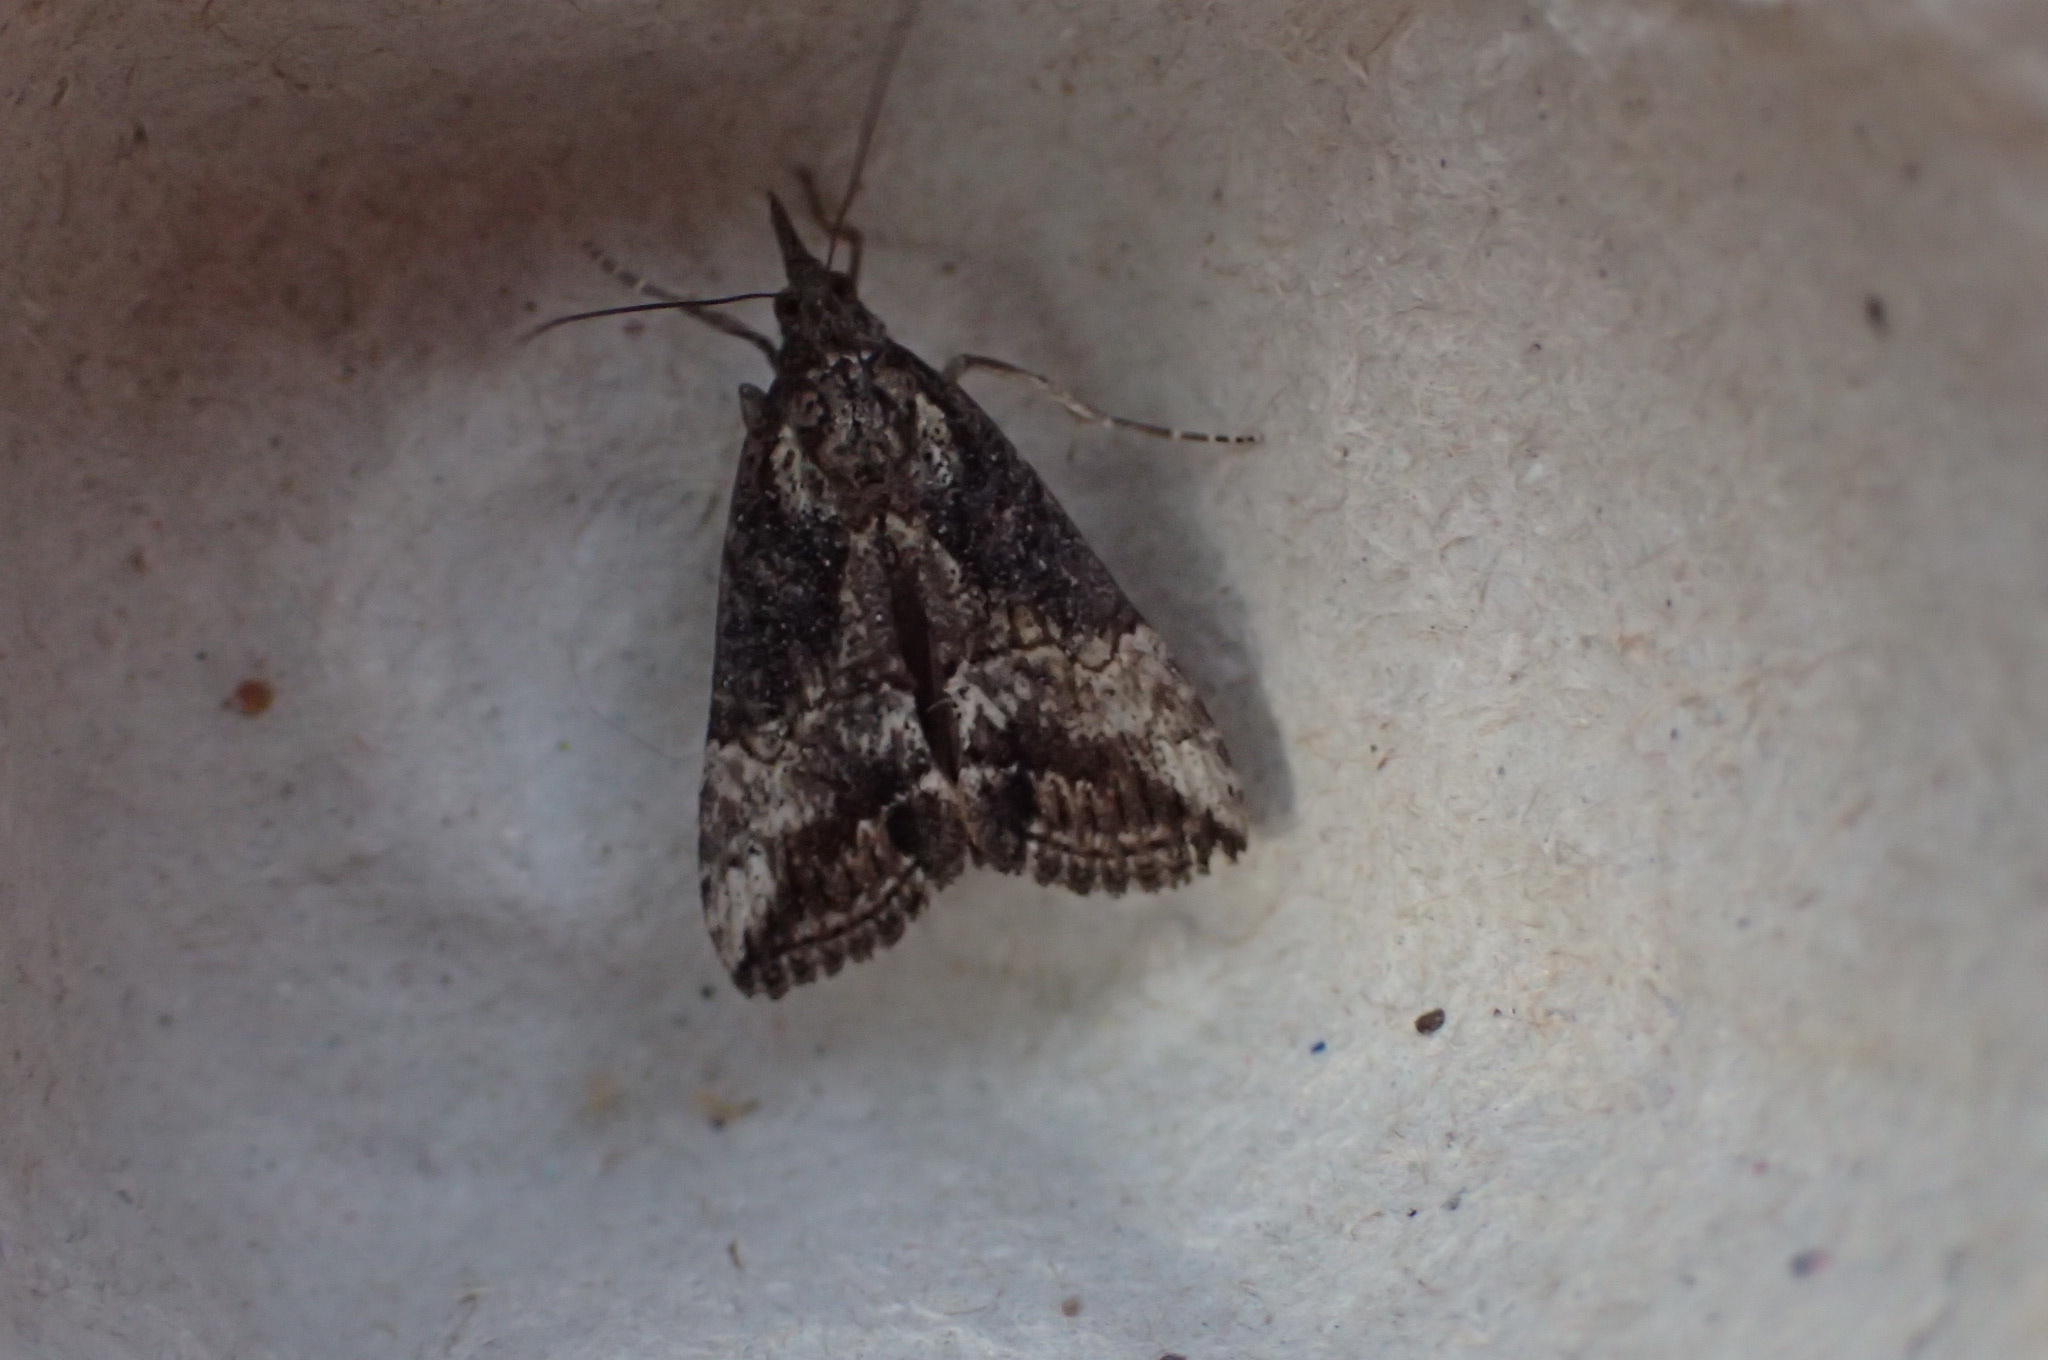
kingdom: Animalia
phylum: Arthropoda
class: Insecta
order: Lepidoptera
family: Erebidae
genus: Hypena
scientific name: Hypena scabra
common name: Green cloverworm
